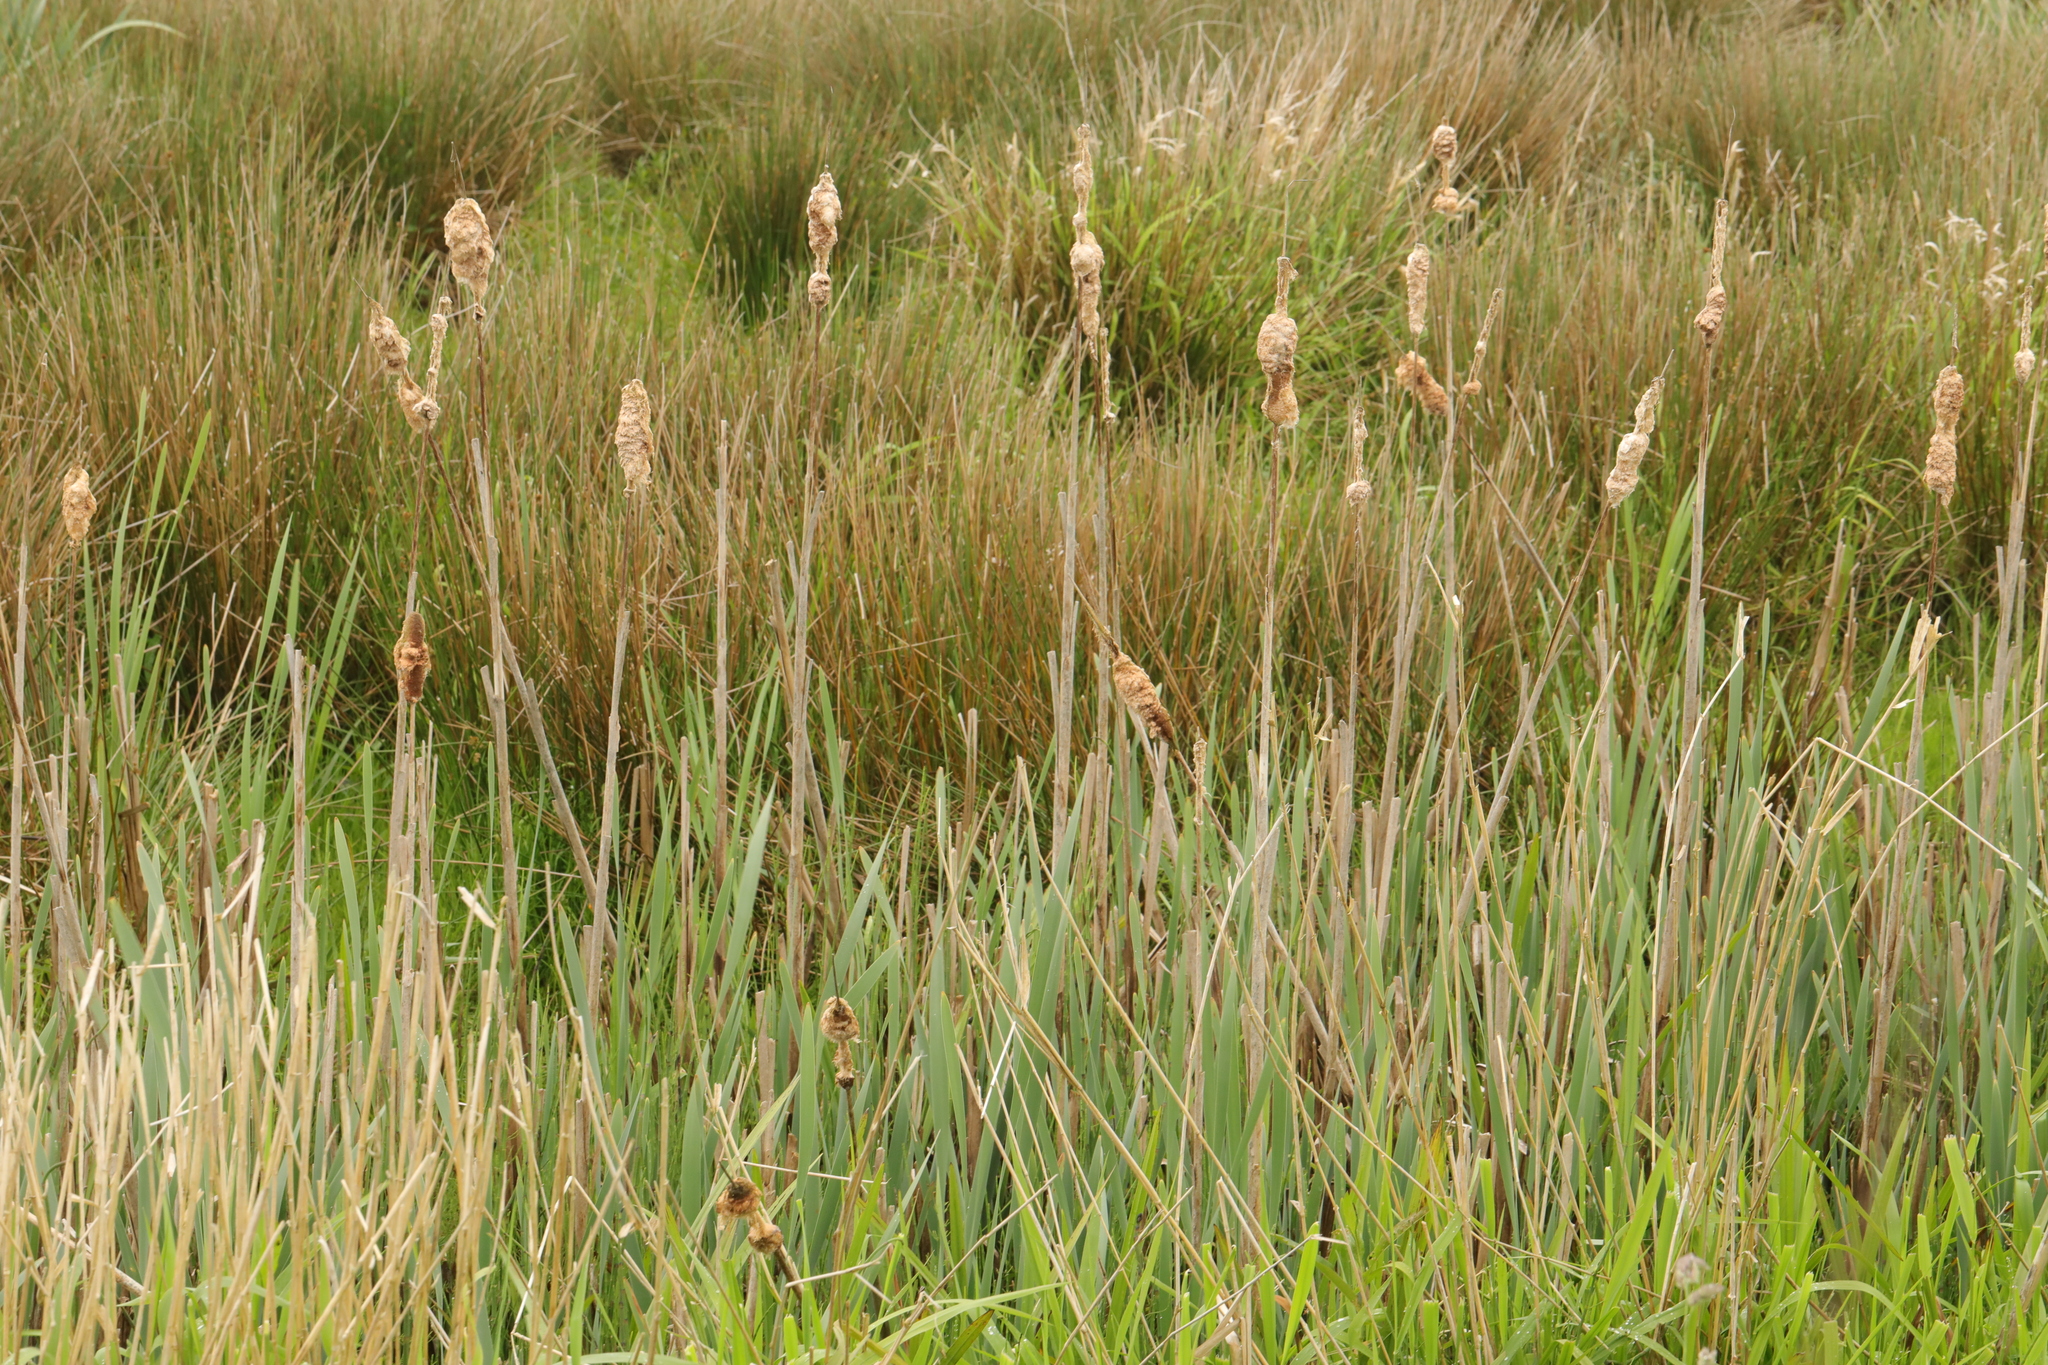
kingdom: Plantae
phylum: Tracheophyta
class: Liliopsida
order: Poales
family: Typhaceae
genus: Typha
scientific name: Typha latifolia
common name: Broadleaf cattail
